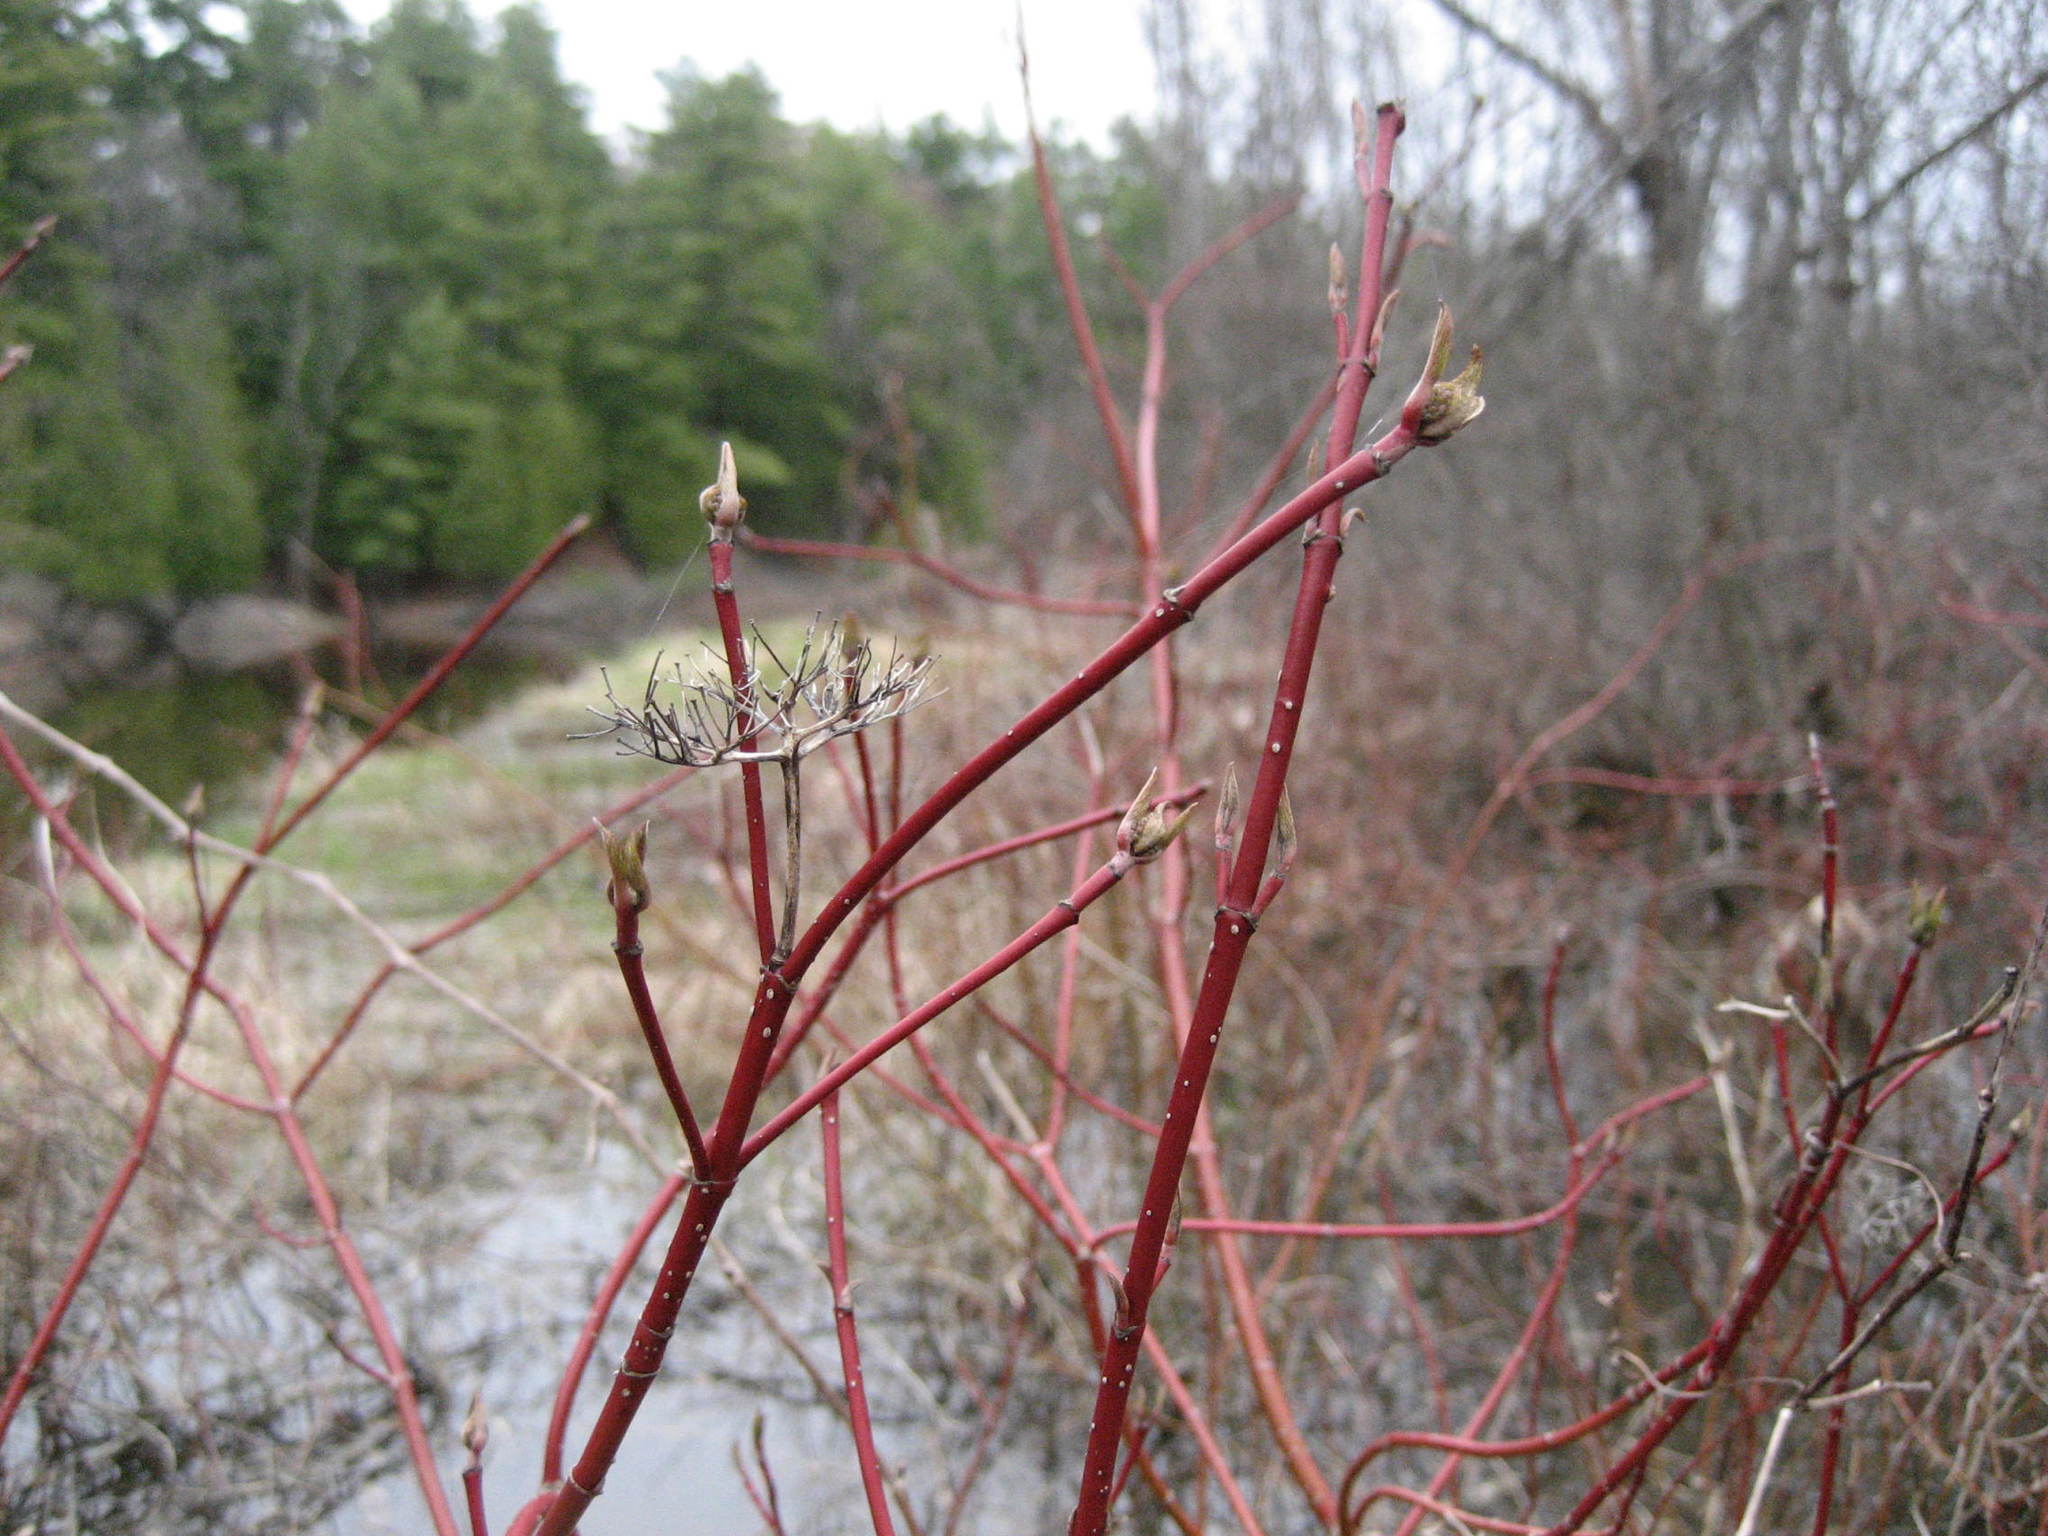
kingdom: Plantae
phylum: Tracheophyta
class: Magnoliopsida
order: Cornales
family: Cornaceae
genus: Cornus
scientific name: Cornus sericea
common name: Red-osier dogwood
